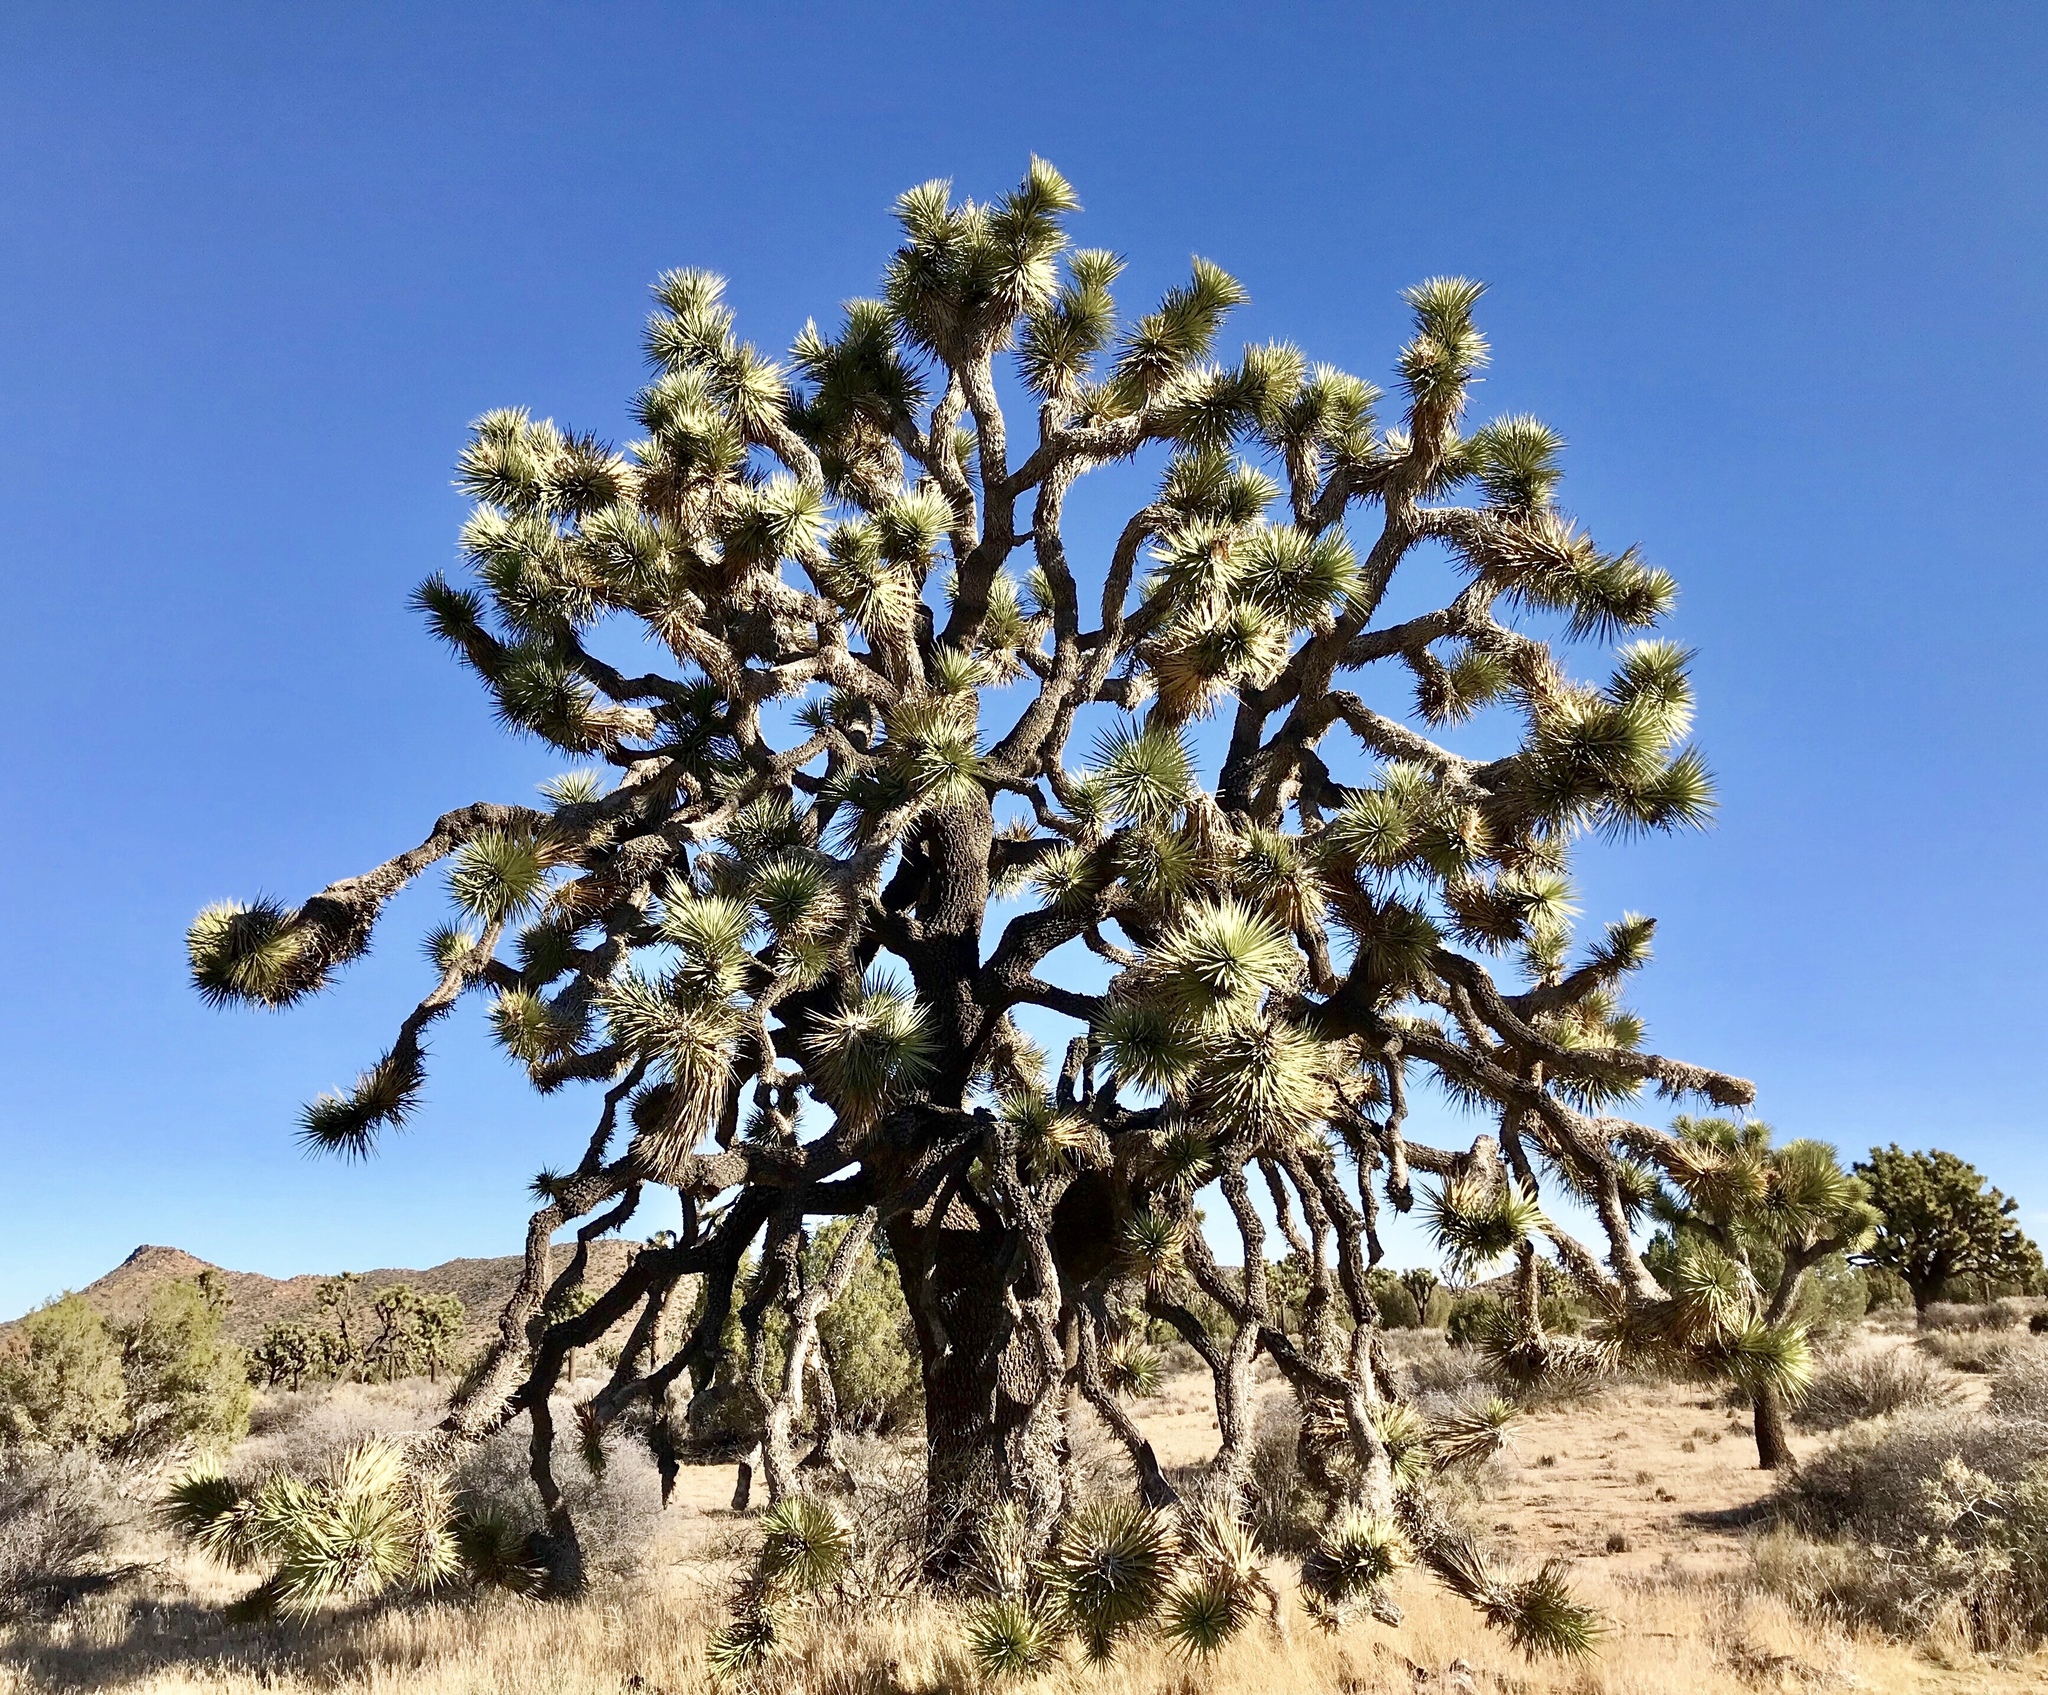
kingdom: Plantae
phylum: Tracheophyta
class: Liliopsida
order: Asparagales
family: Asparagaceae
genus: Yucca
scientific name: Yucca brevifolia
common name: Joshua tree
